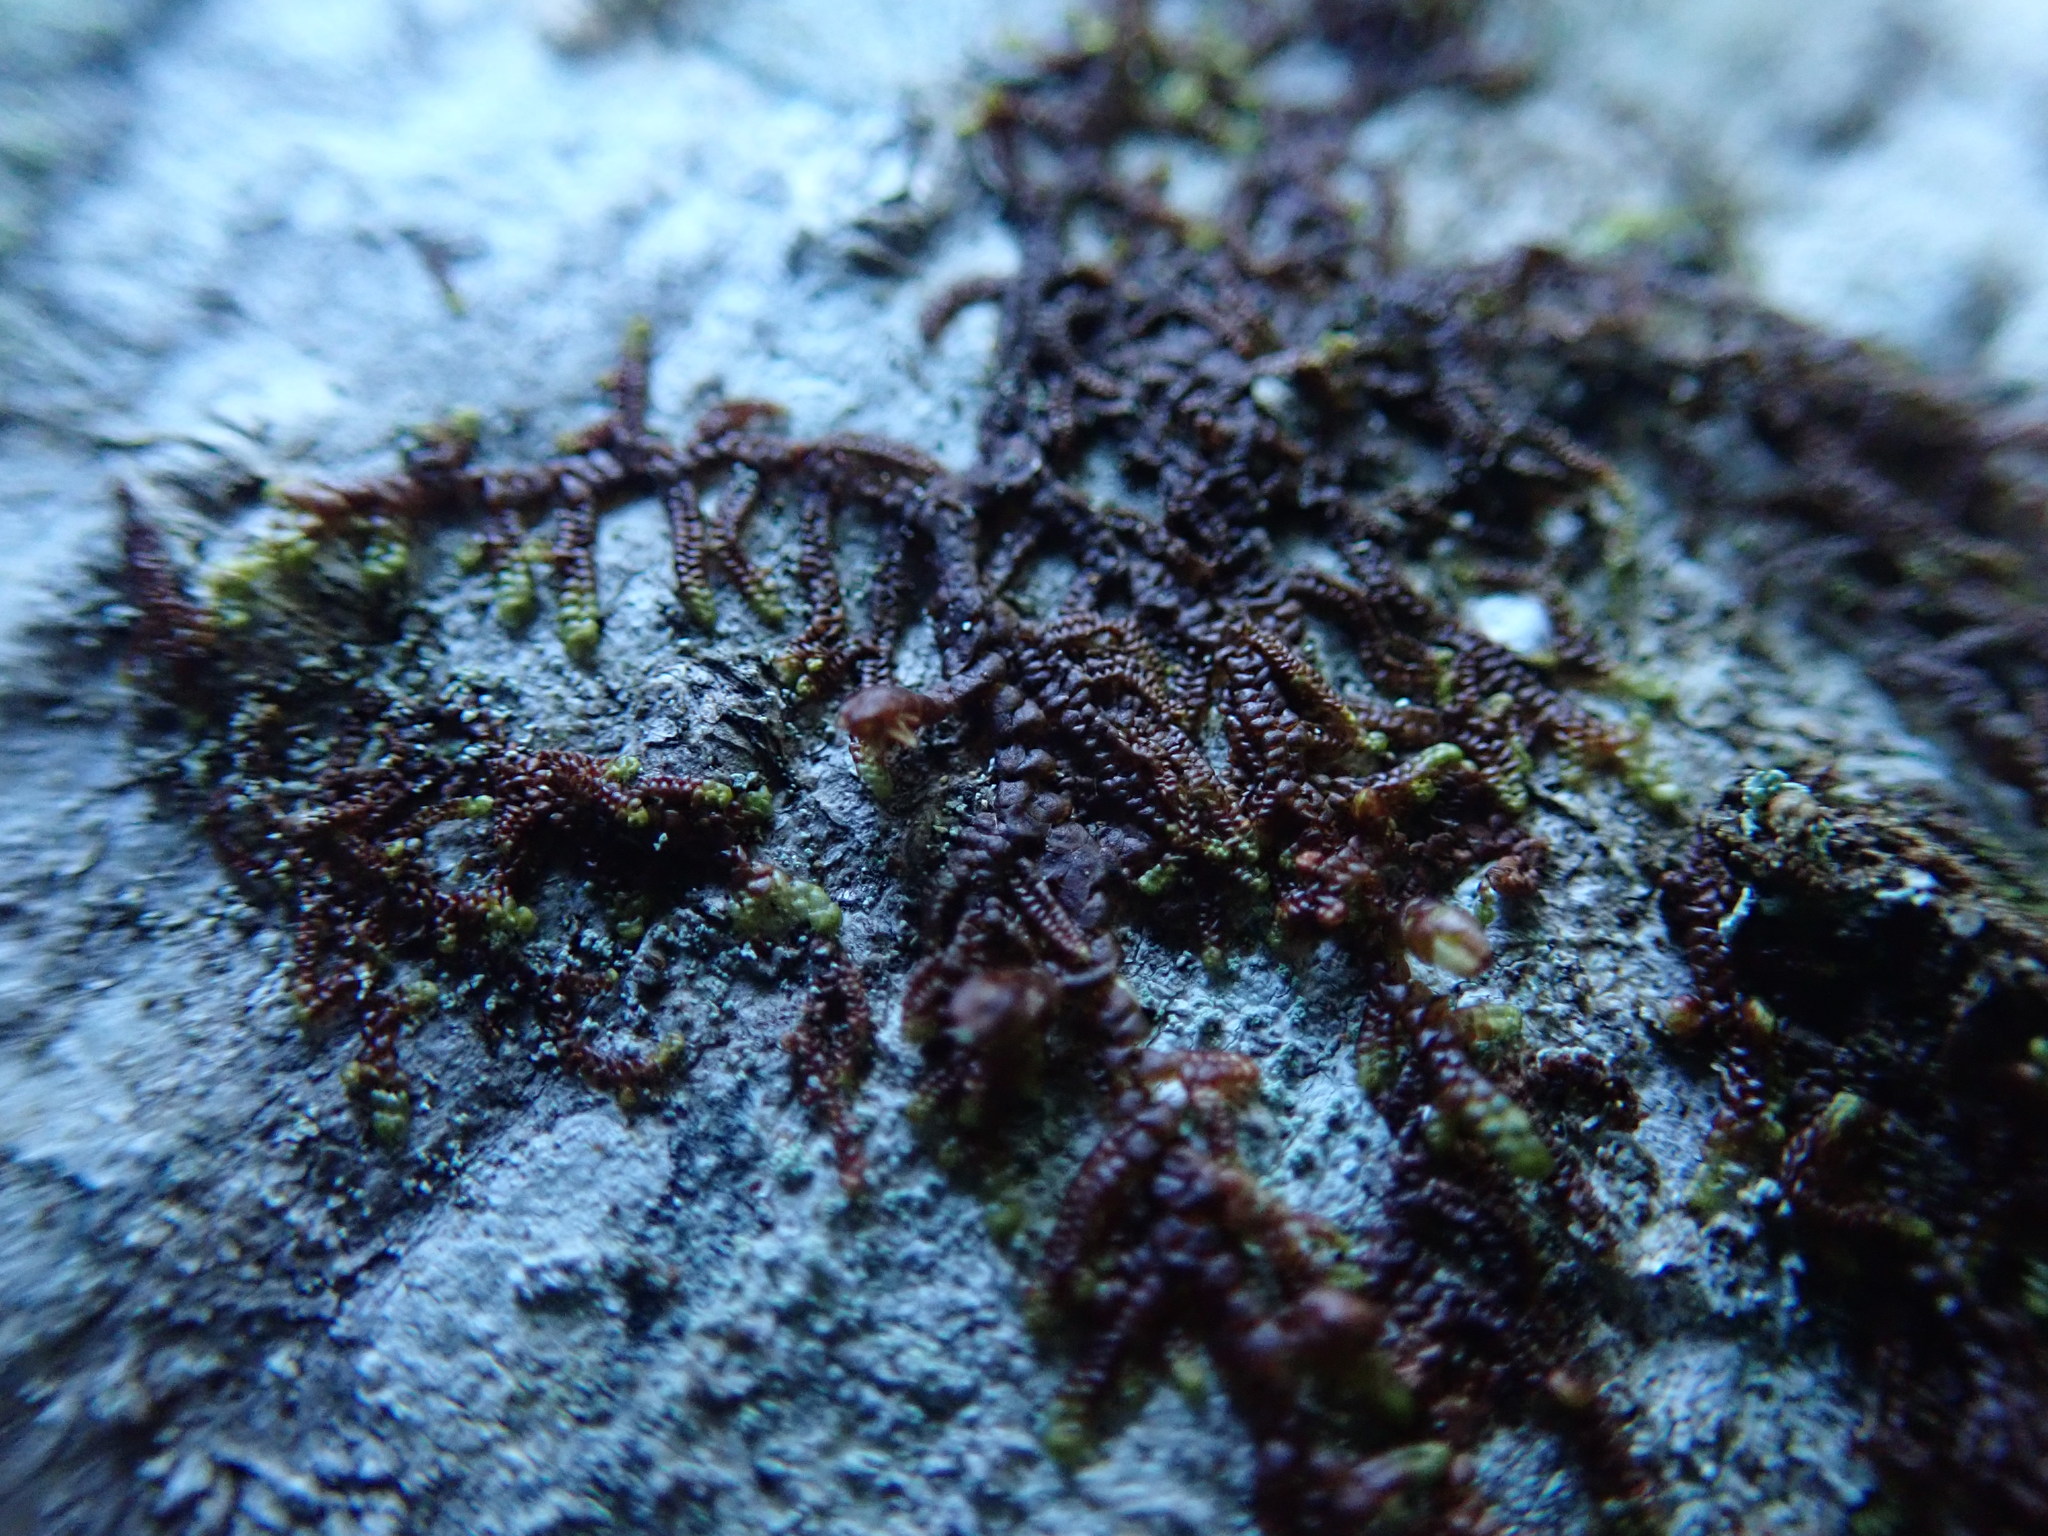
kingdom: Plantae
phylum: Marchantiophyta
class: Jungermanniopsida
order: Porellales
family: Frullaniaceae
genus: Frullania
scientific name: Frullania nisquallensis
